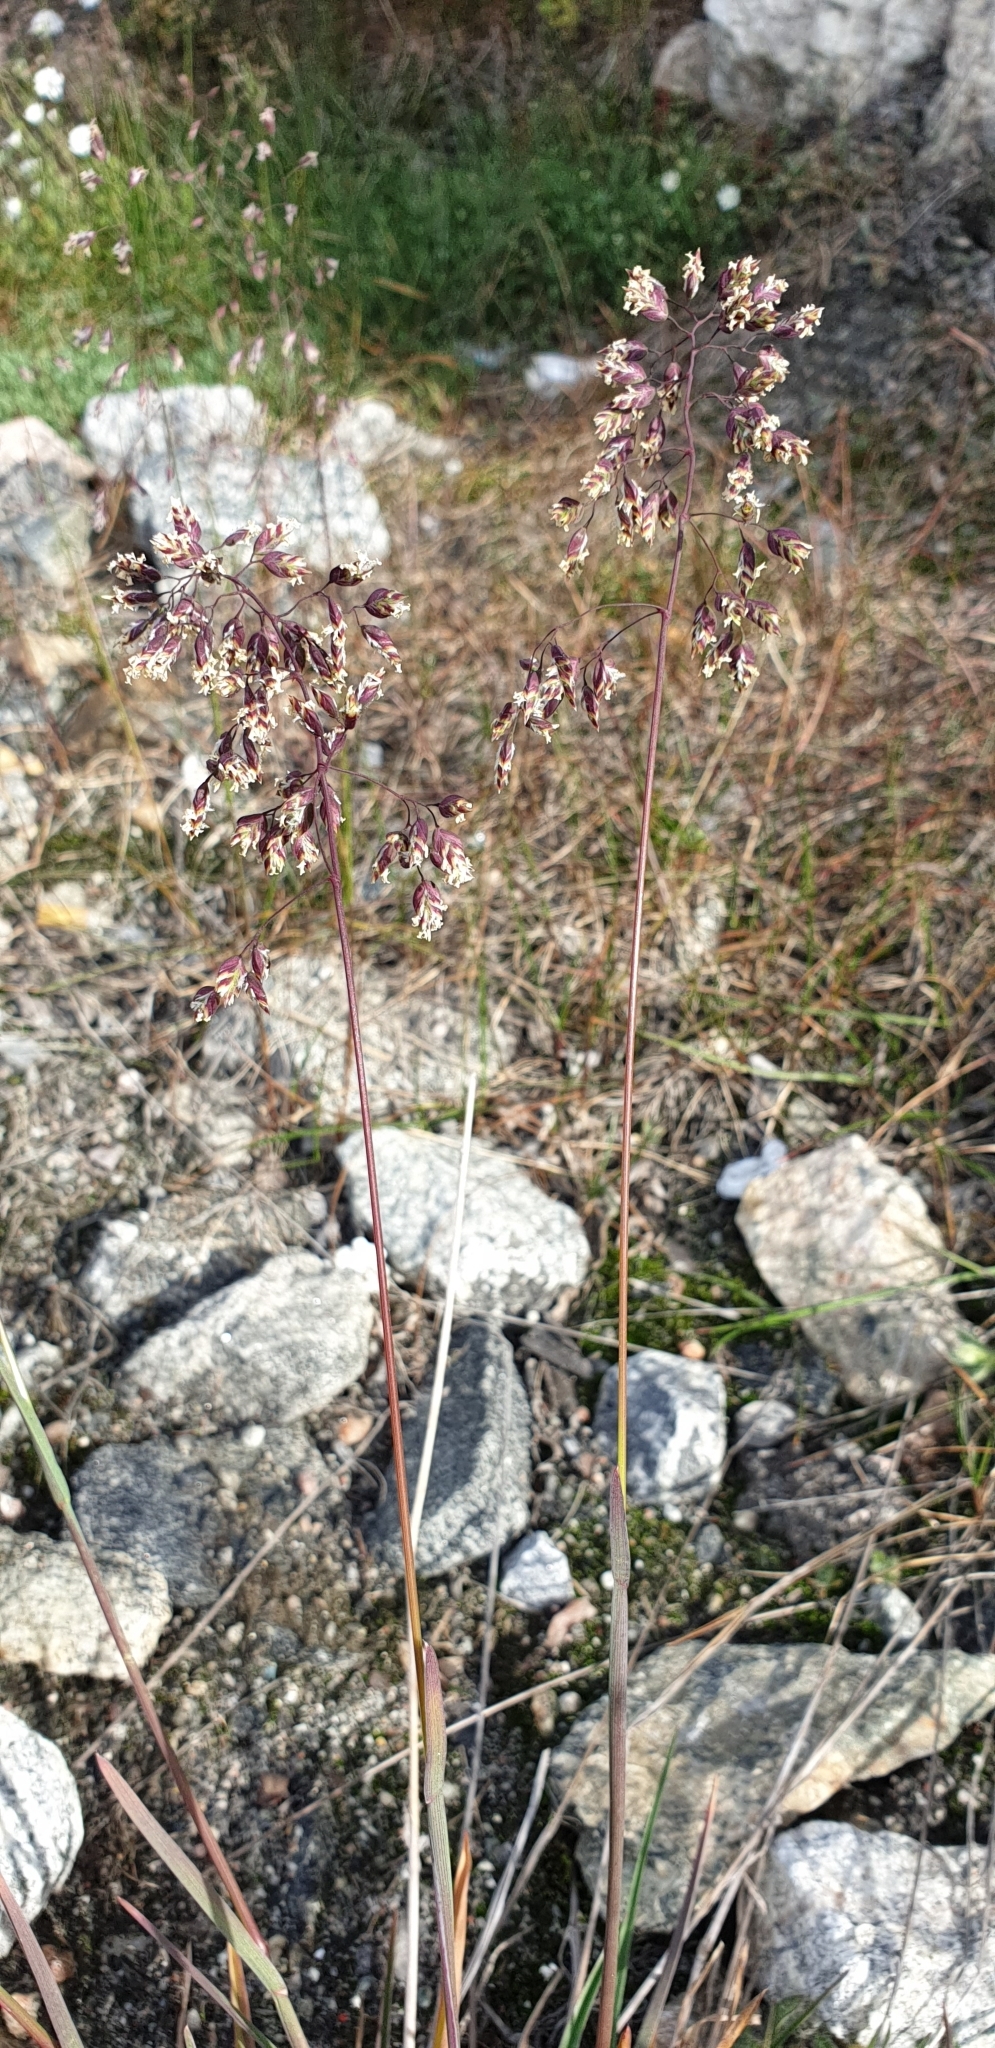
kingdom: Plantae
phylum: Tracheophyta
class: Liliopsida
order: Poales
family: Poaceae
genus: Poa
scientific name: Poa alpina
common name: Alpine bluegrass
